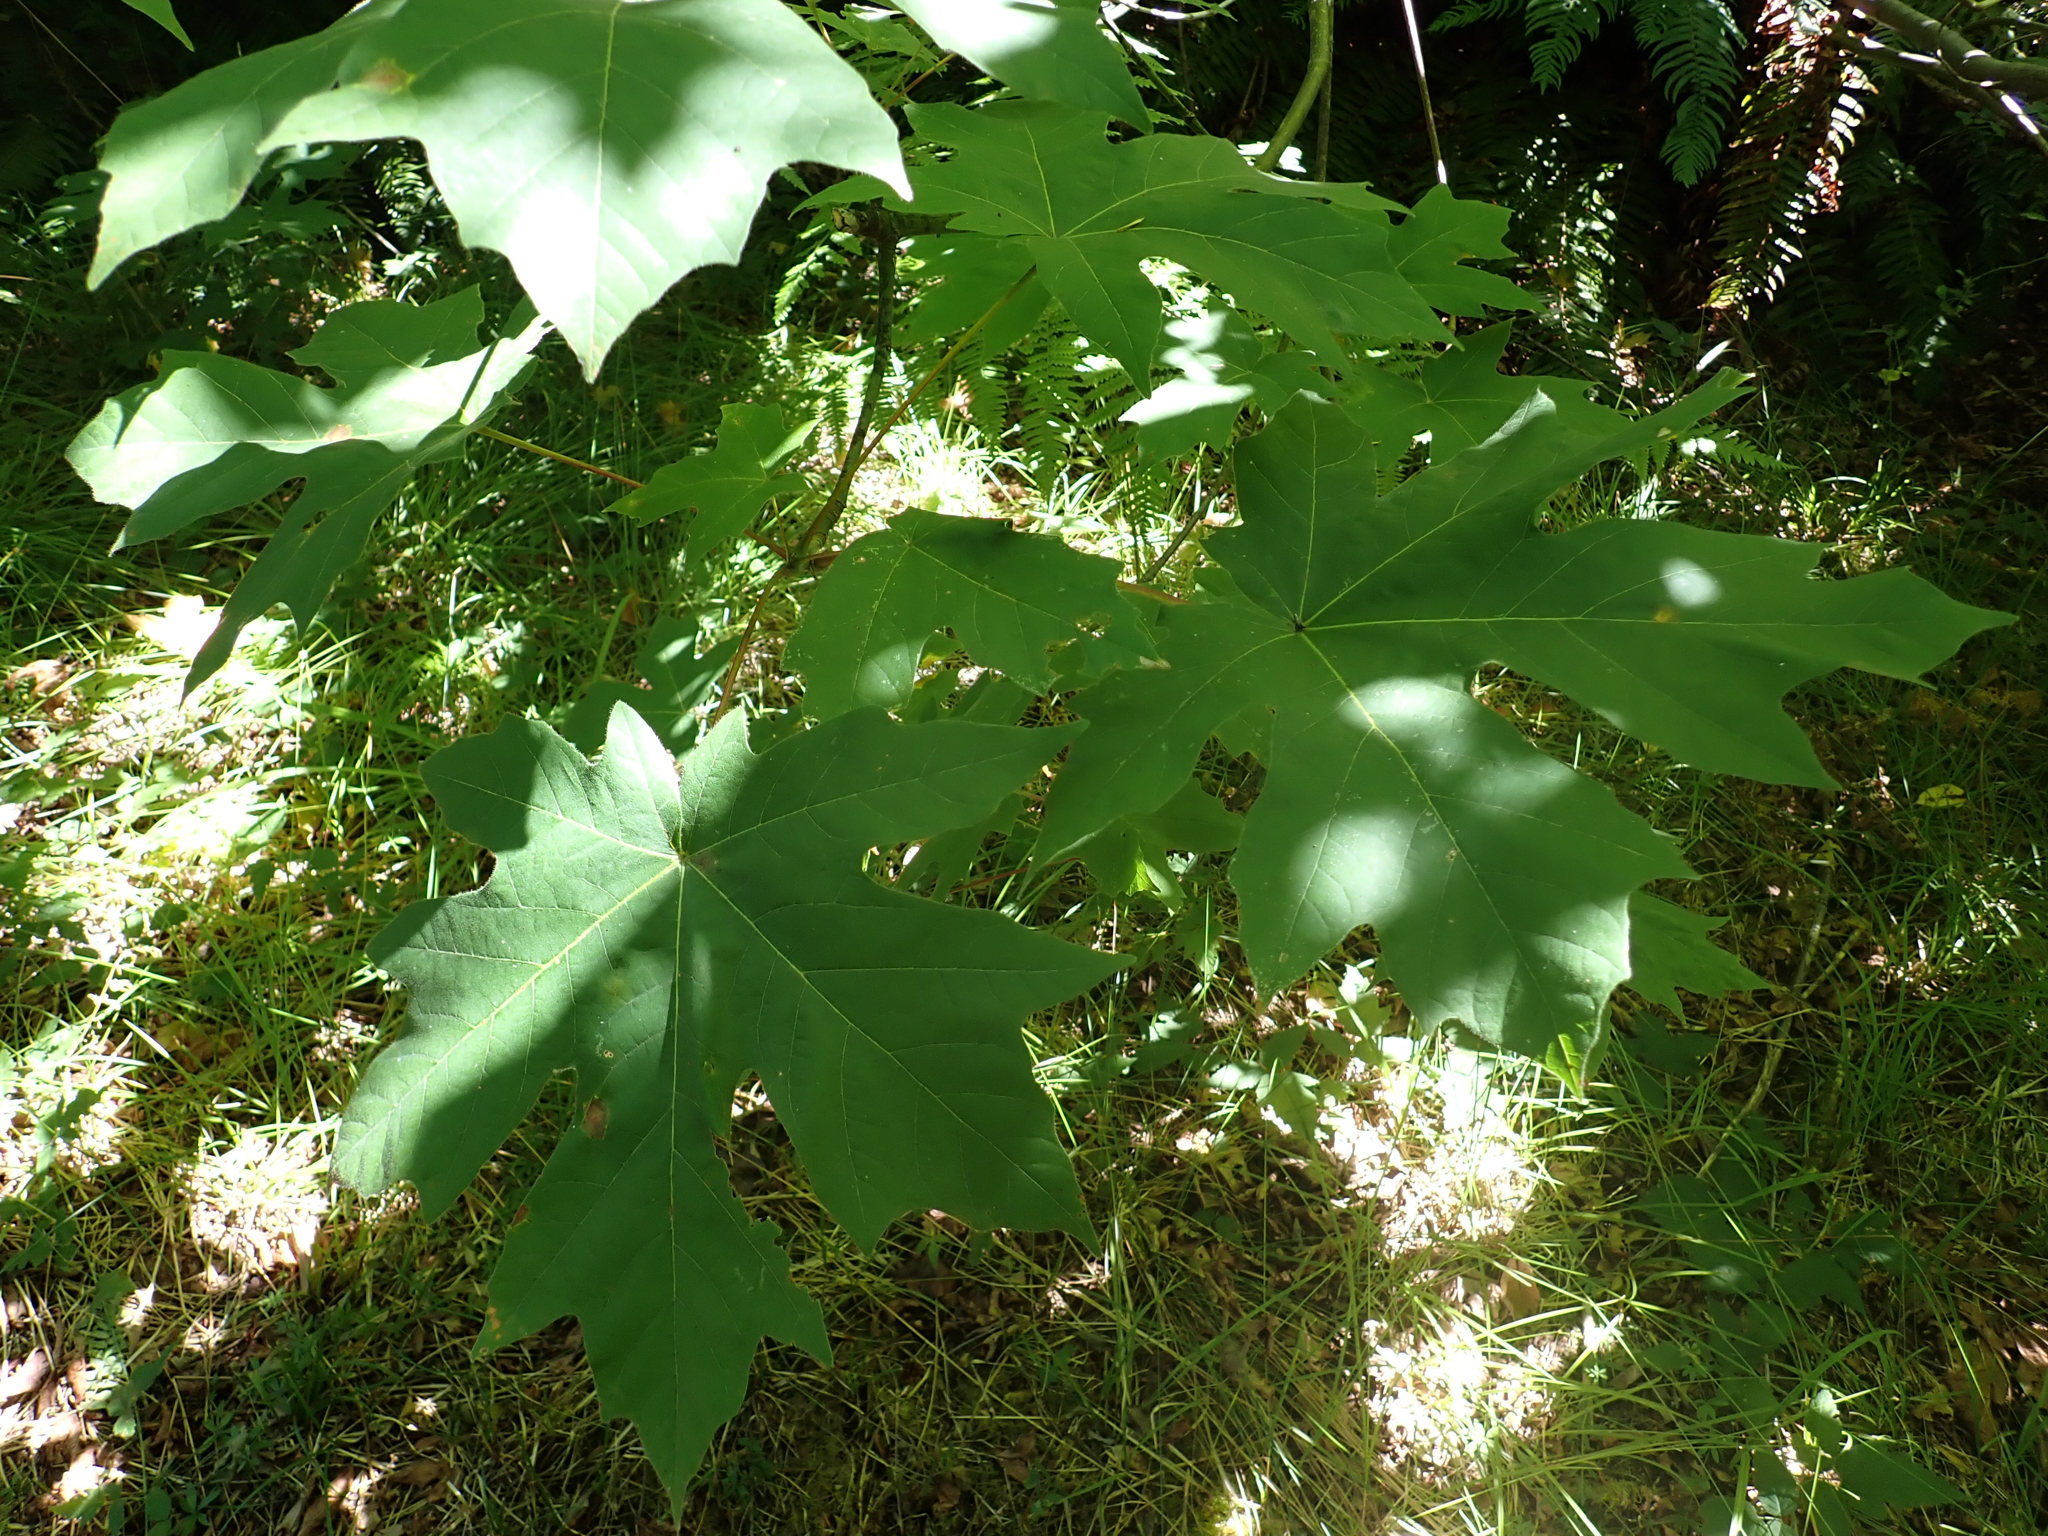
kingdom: Plantae
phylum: Tracheophyta
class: Magnoliopsida
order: Sapindales
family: Sapindaceae
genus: Acer
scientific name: Acer macrophyllum
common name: Oregon maple
